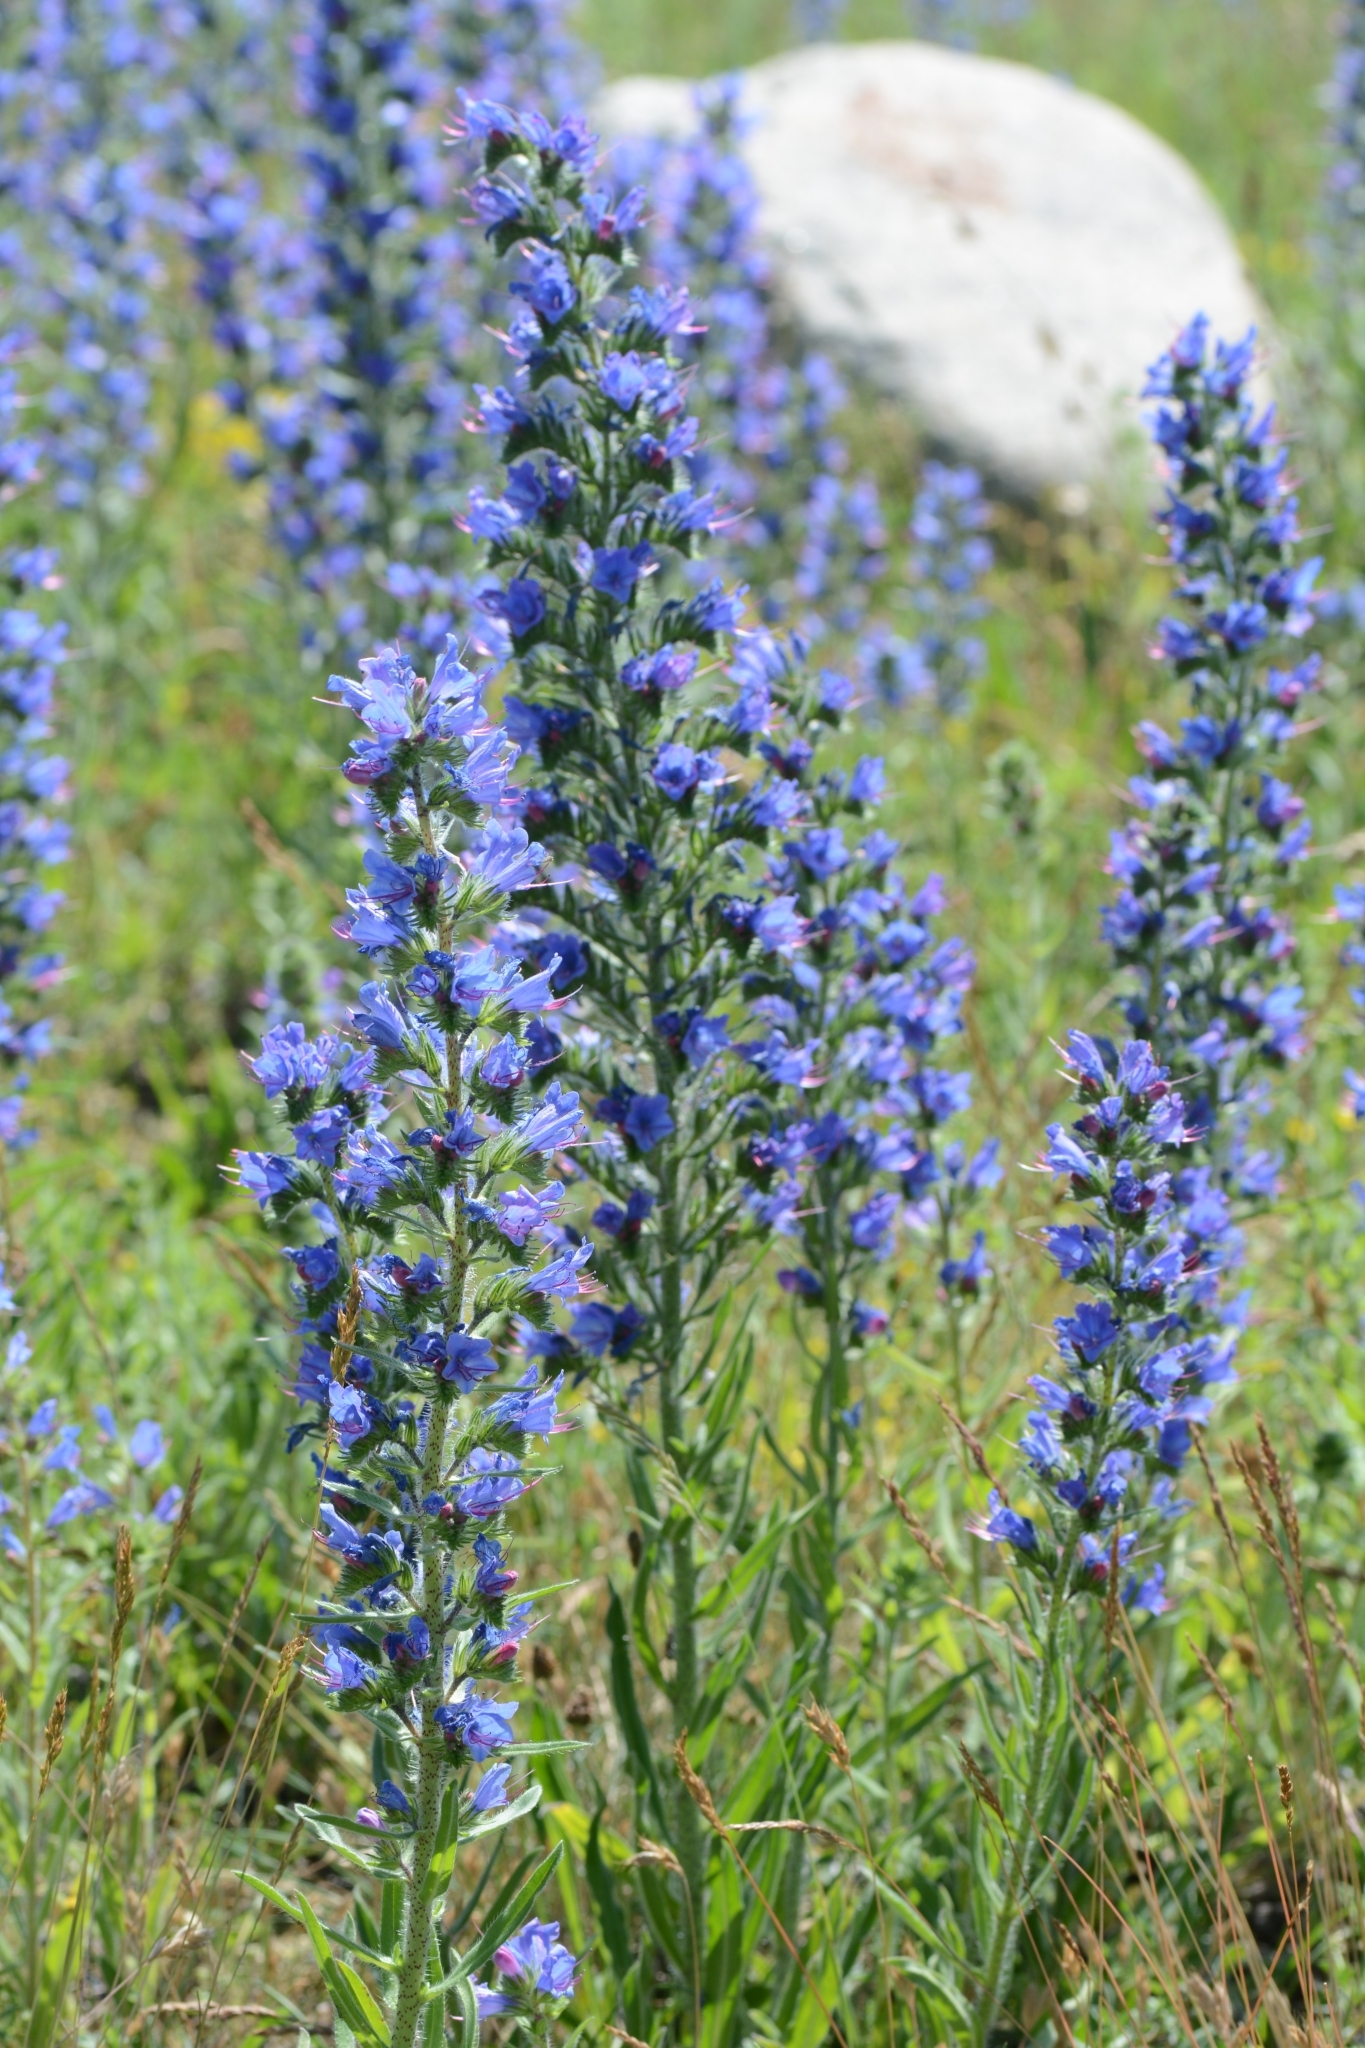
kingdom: Plantae
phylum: Tracheophyta
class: Magnoliopsida
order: Boraginales
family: Boraginaceae
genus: Echium
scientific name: Echium vulgare
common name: Common viper's bugloss
